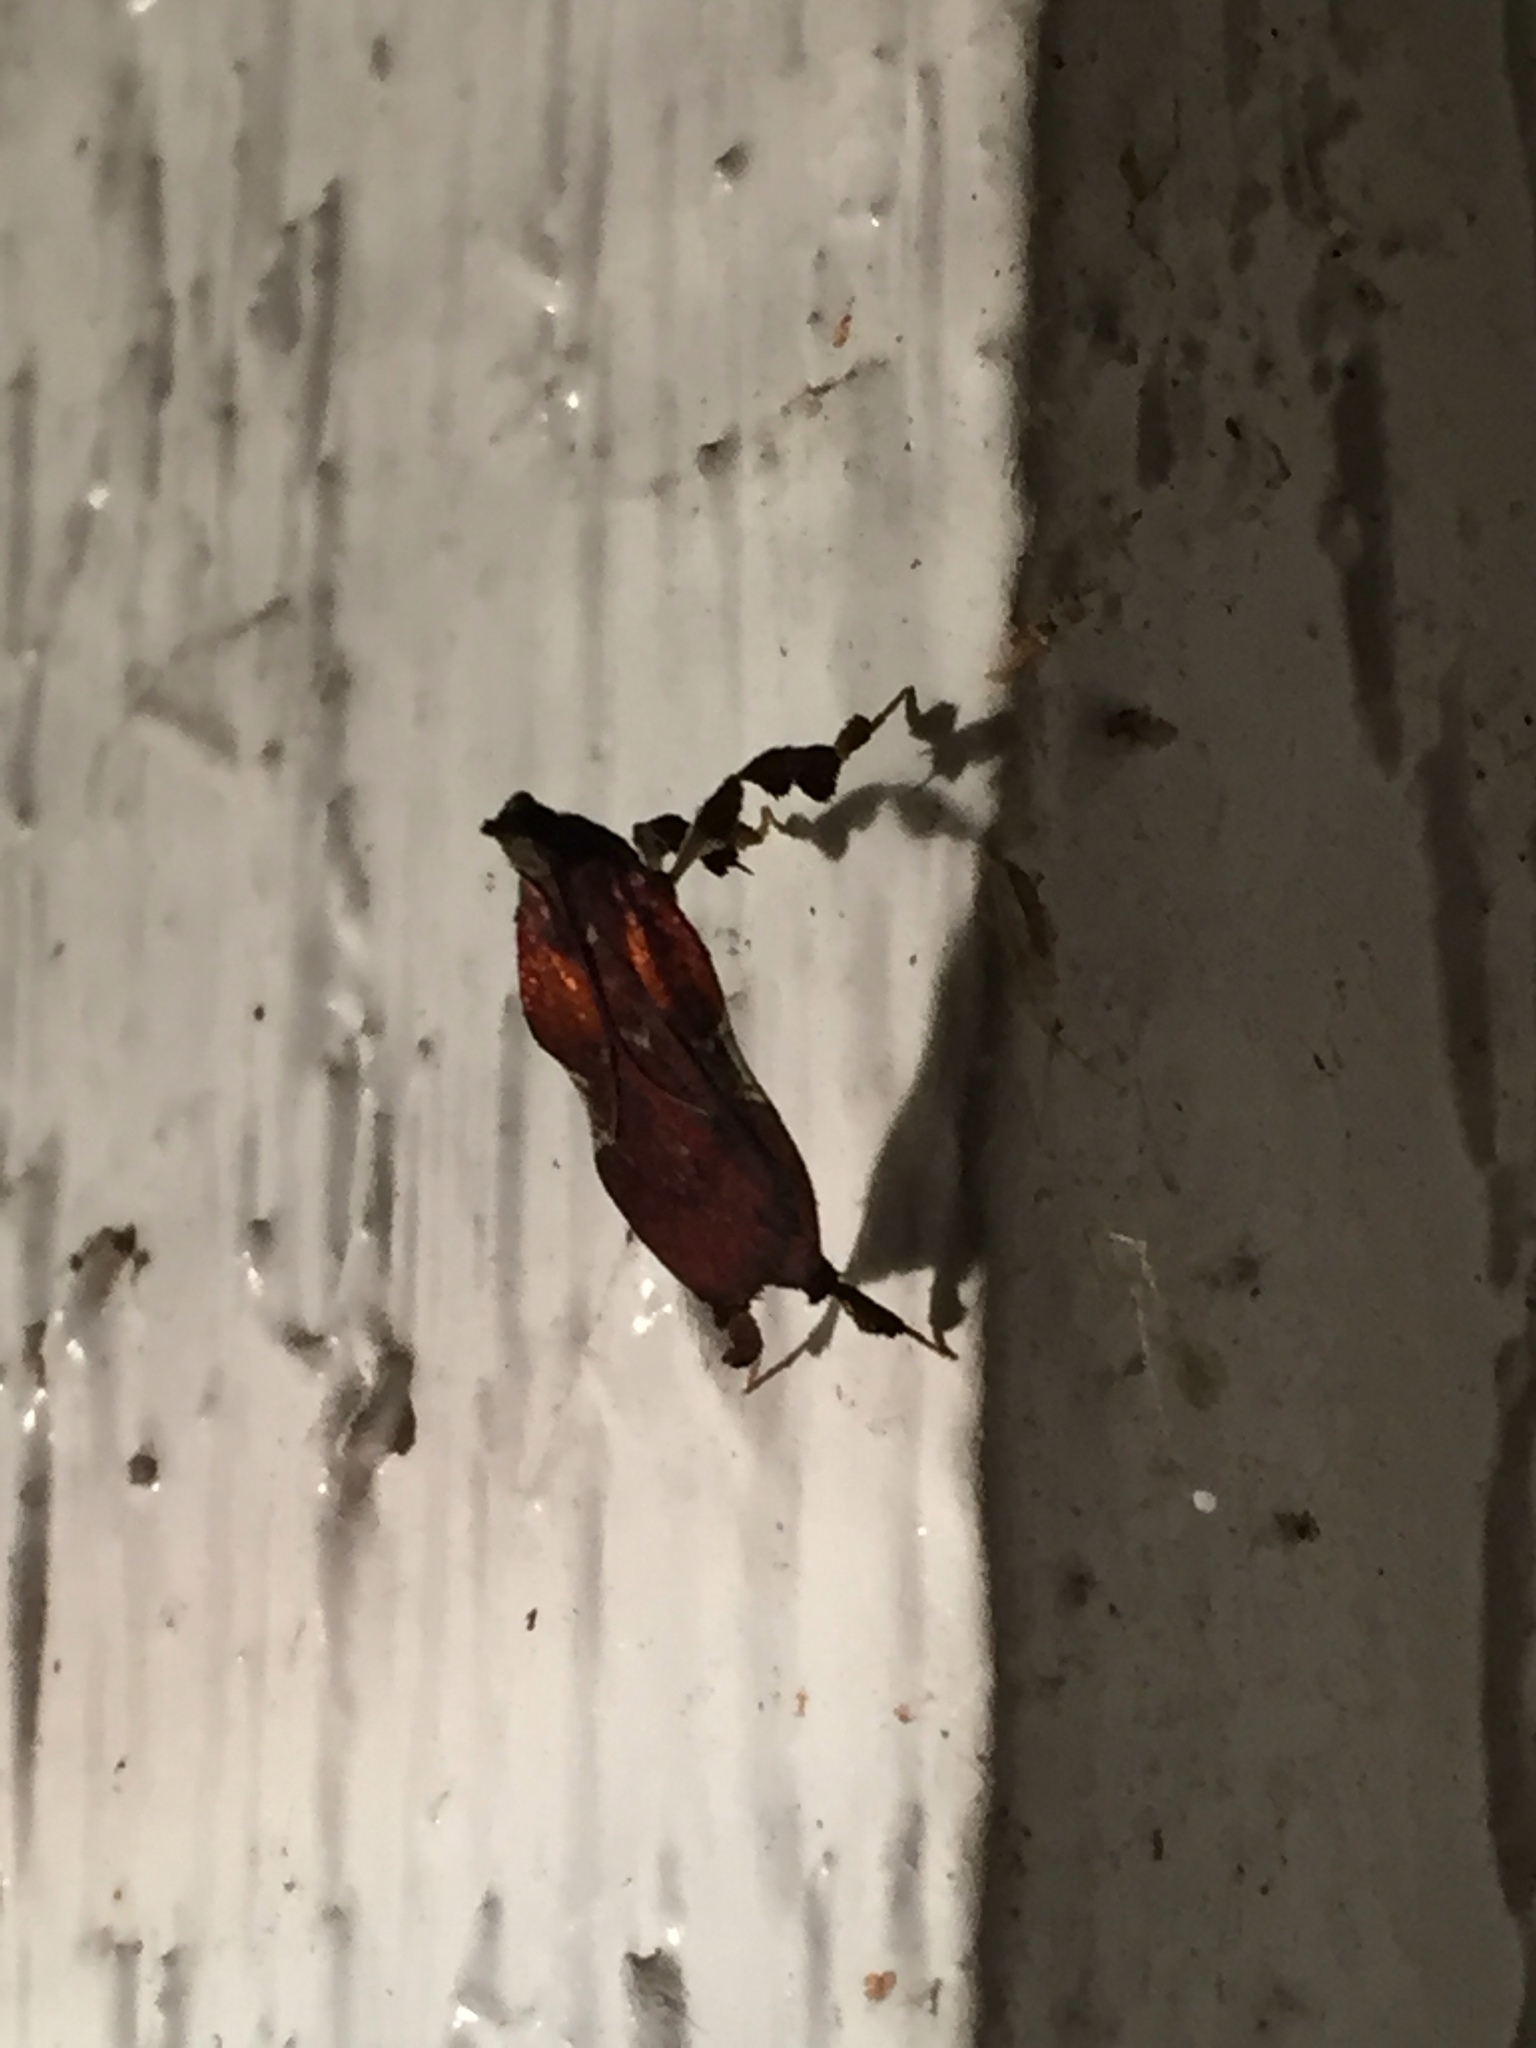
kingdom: Animalia
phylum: Arthropoda
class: Insecta
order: Lepidoptera
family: Pyralidae
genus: Galasa
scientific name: Galasa nigrinodis
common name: Boxwood leaftier moth
